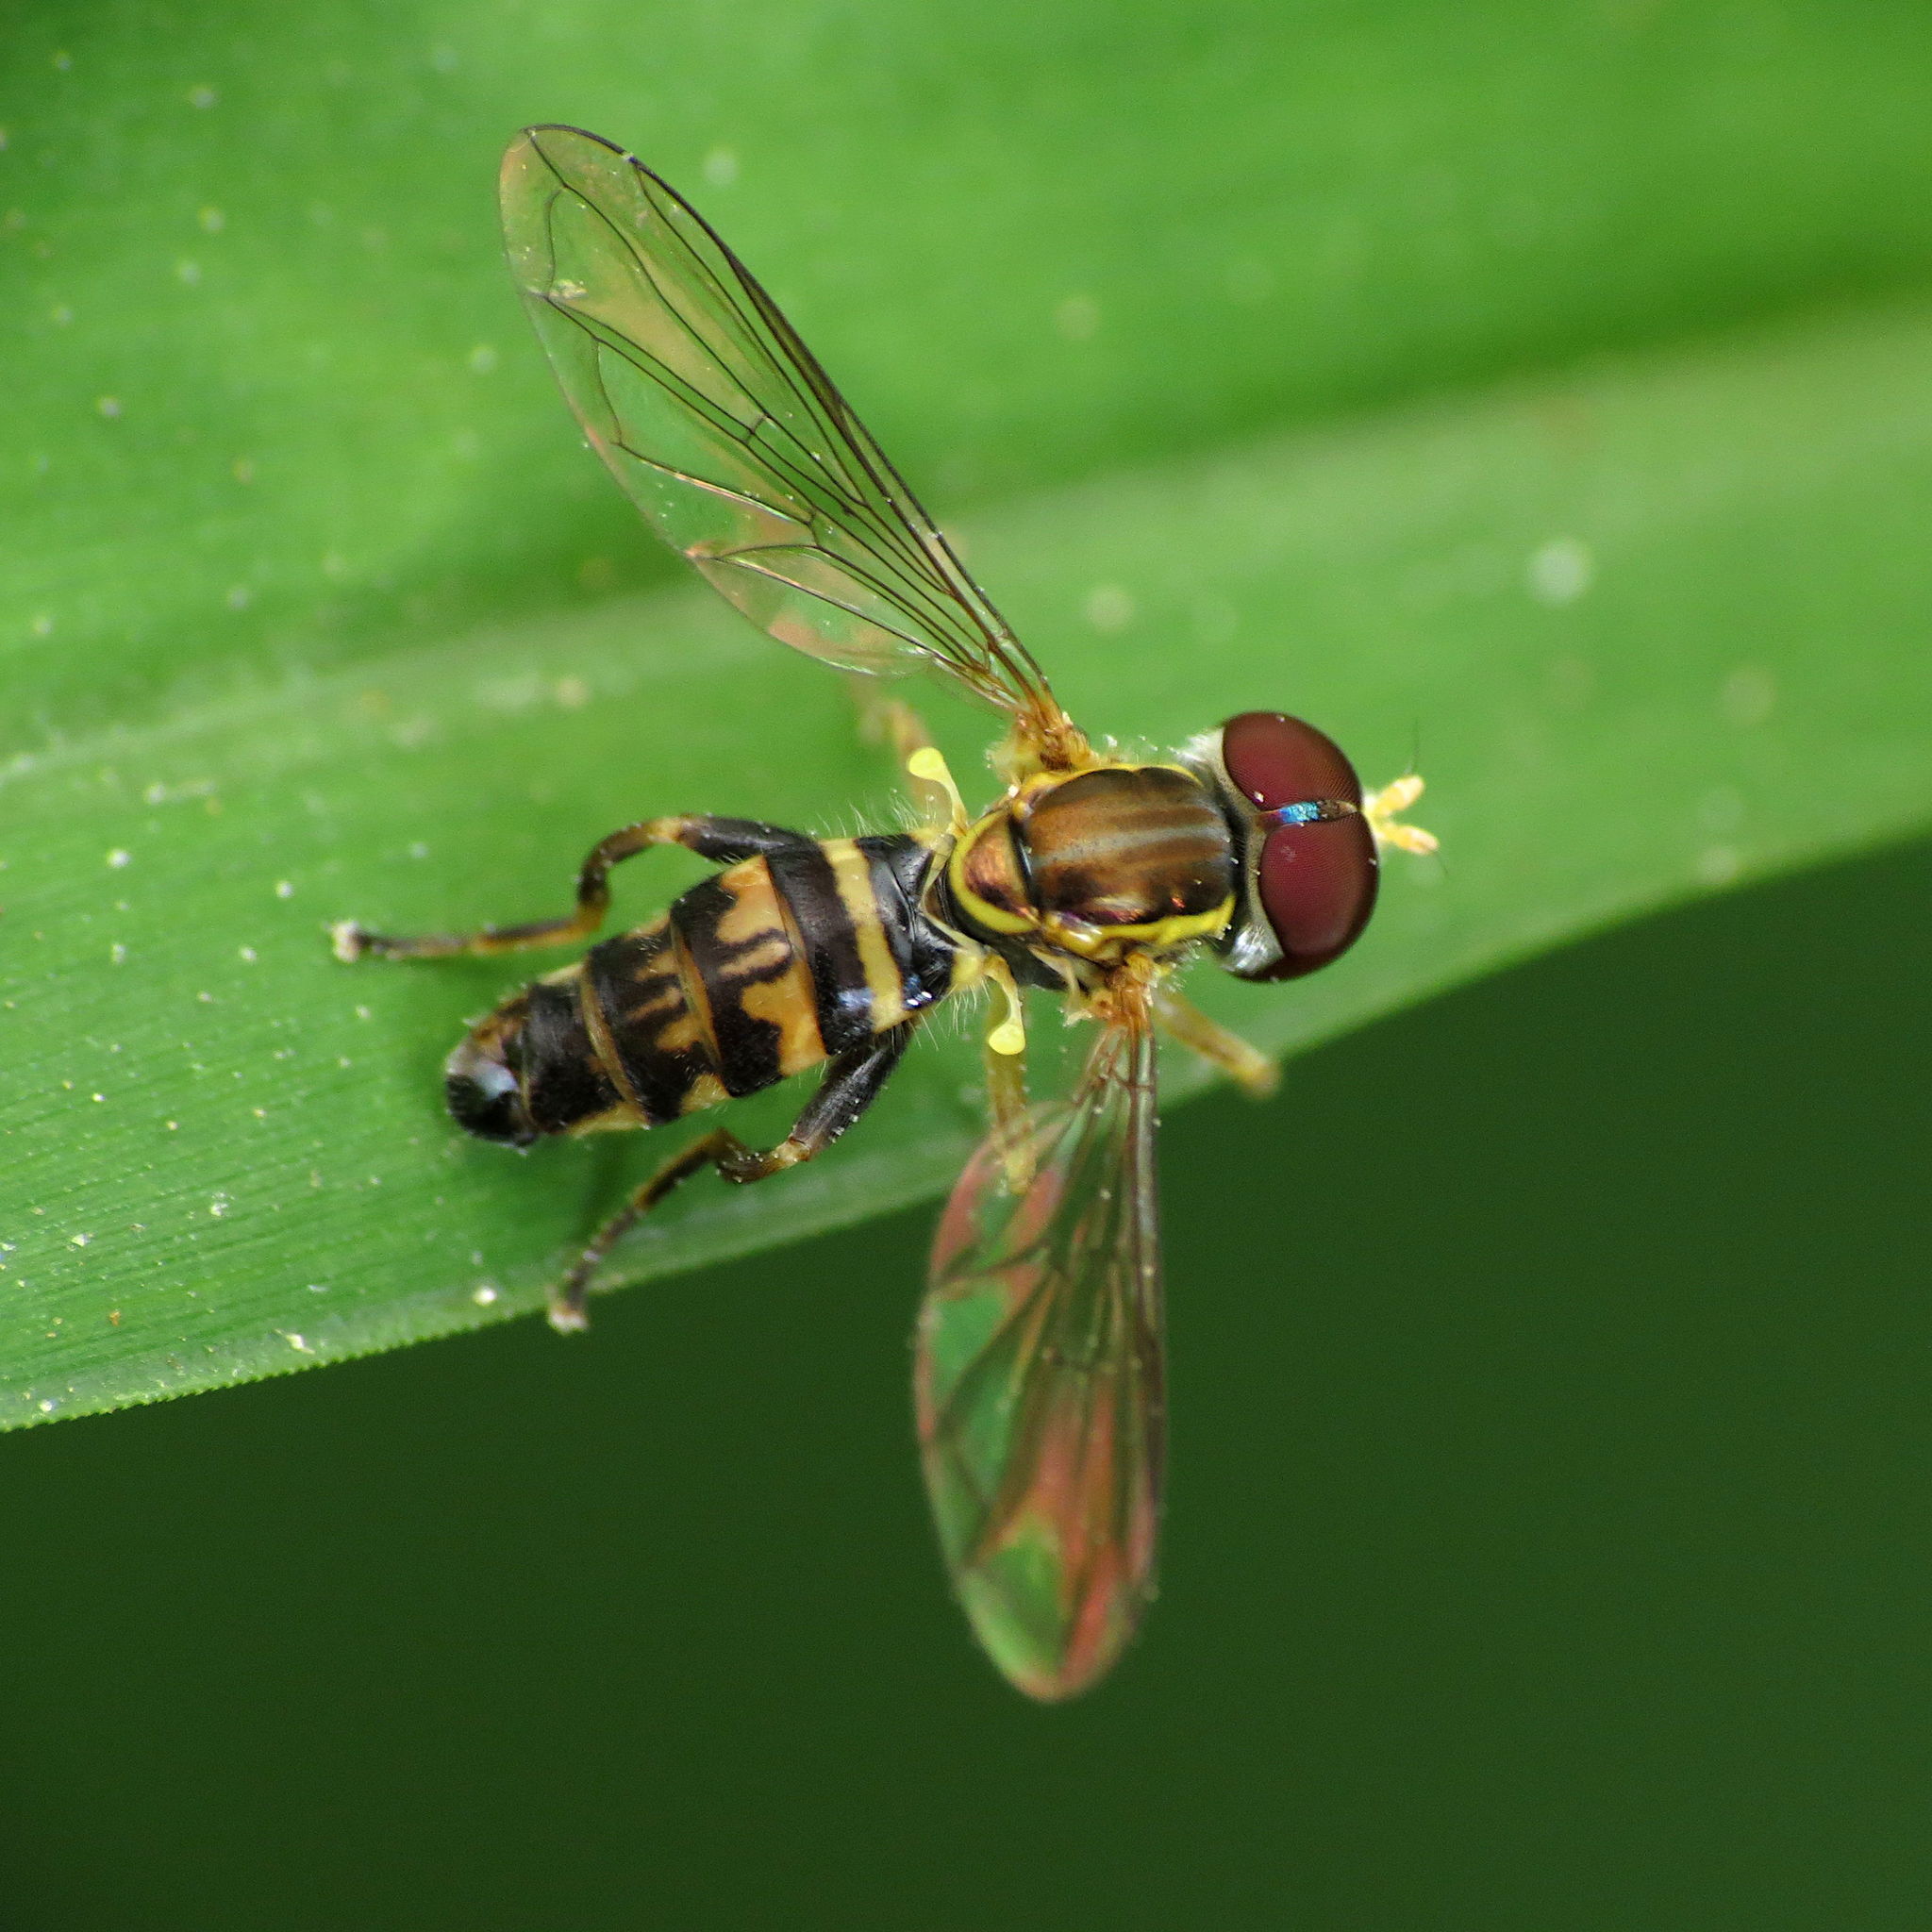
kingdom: Animalia
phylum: Arthropoda
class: Insecta
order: Diptera
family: Syrphidae
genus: Toxomerus
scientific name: Toxomerus geminatus
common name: Eastern calligrapher
